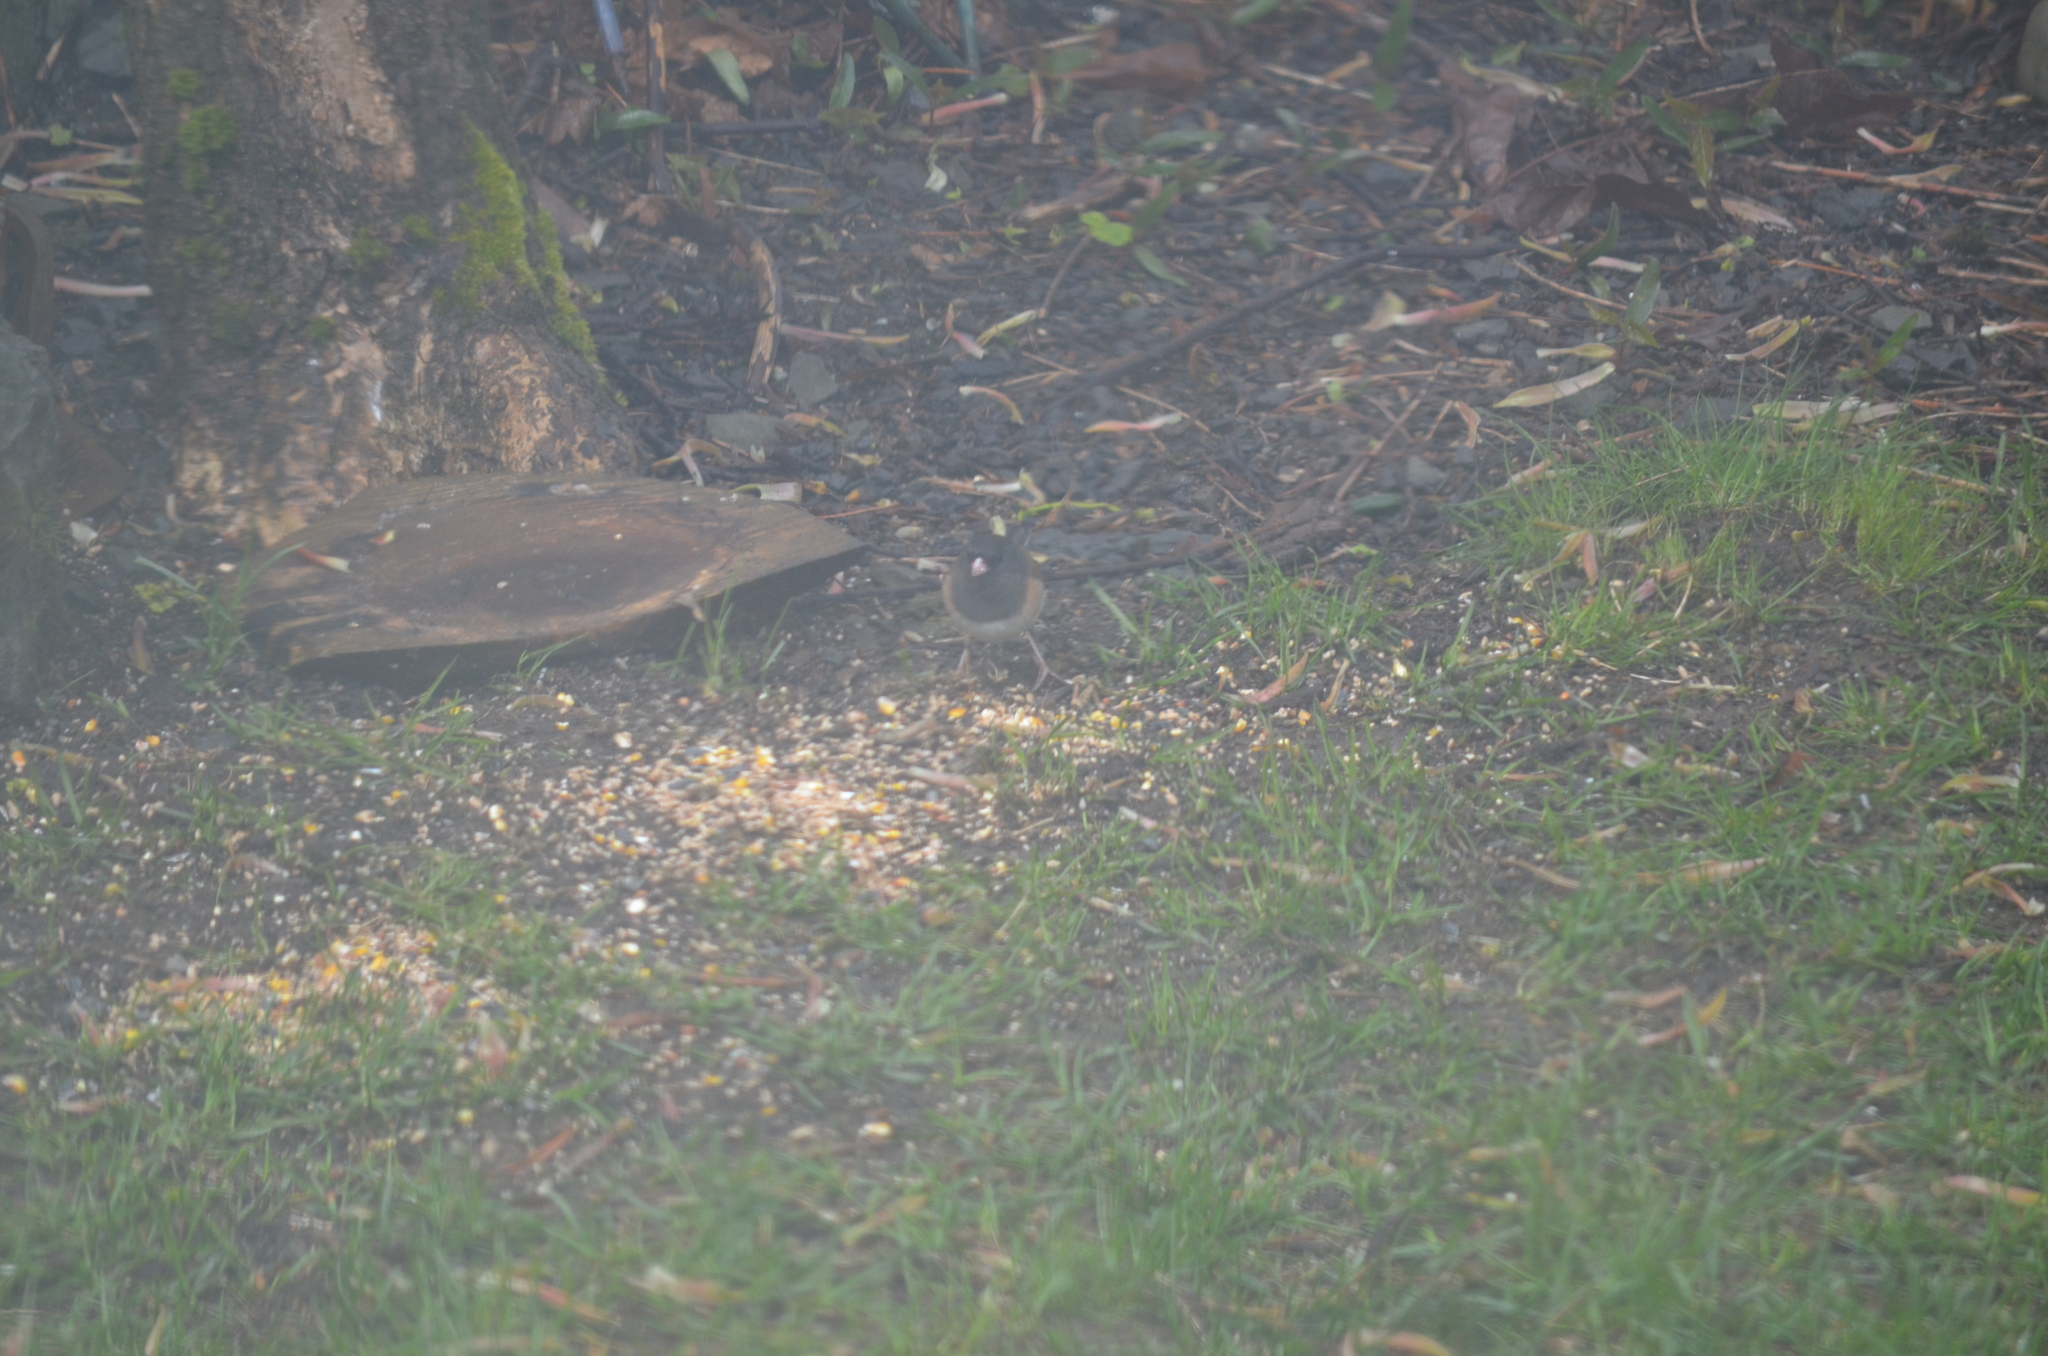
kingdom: Animalia
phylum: Chordata
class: Aves
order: Passeriformes
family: Passerellidae
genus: Junco
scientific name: Junco hyemalis
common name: Dark-eyed junco
